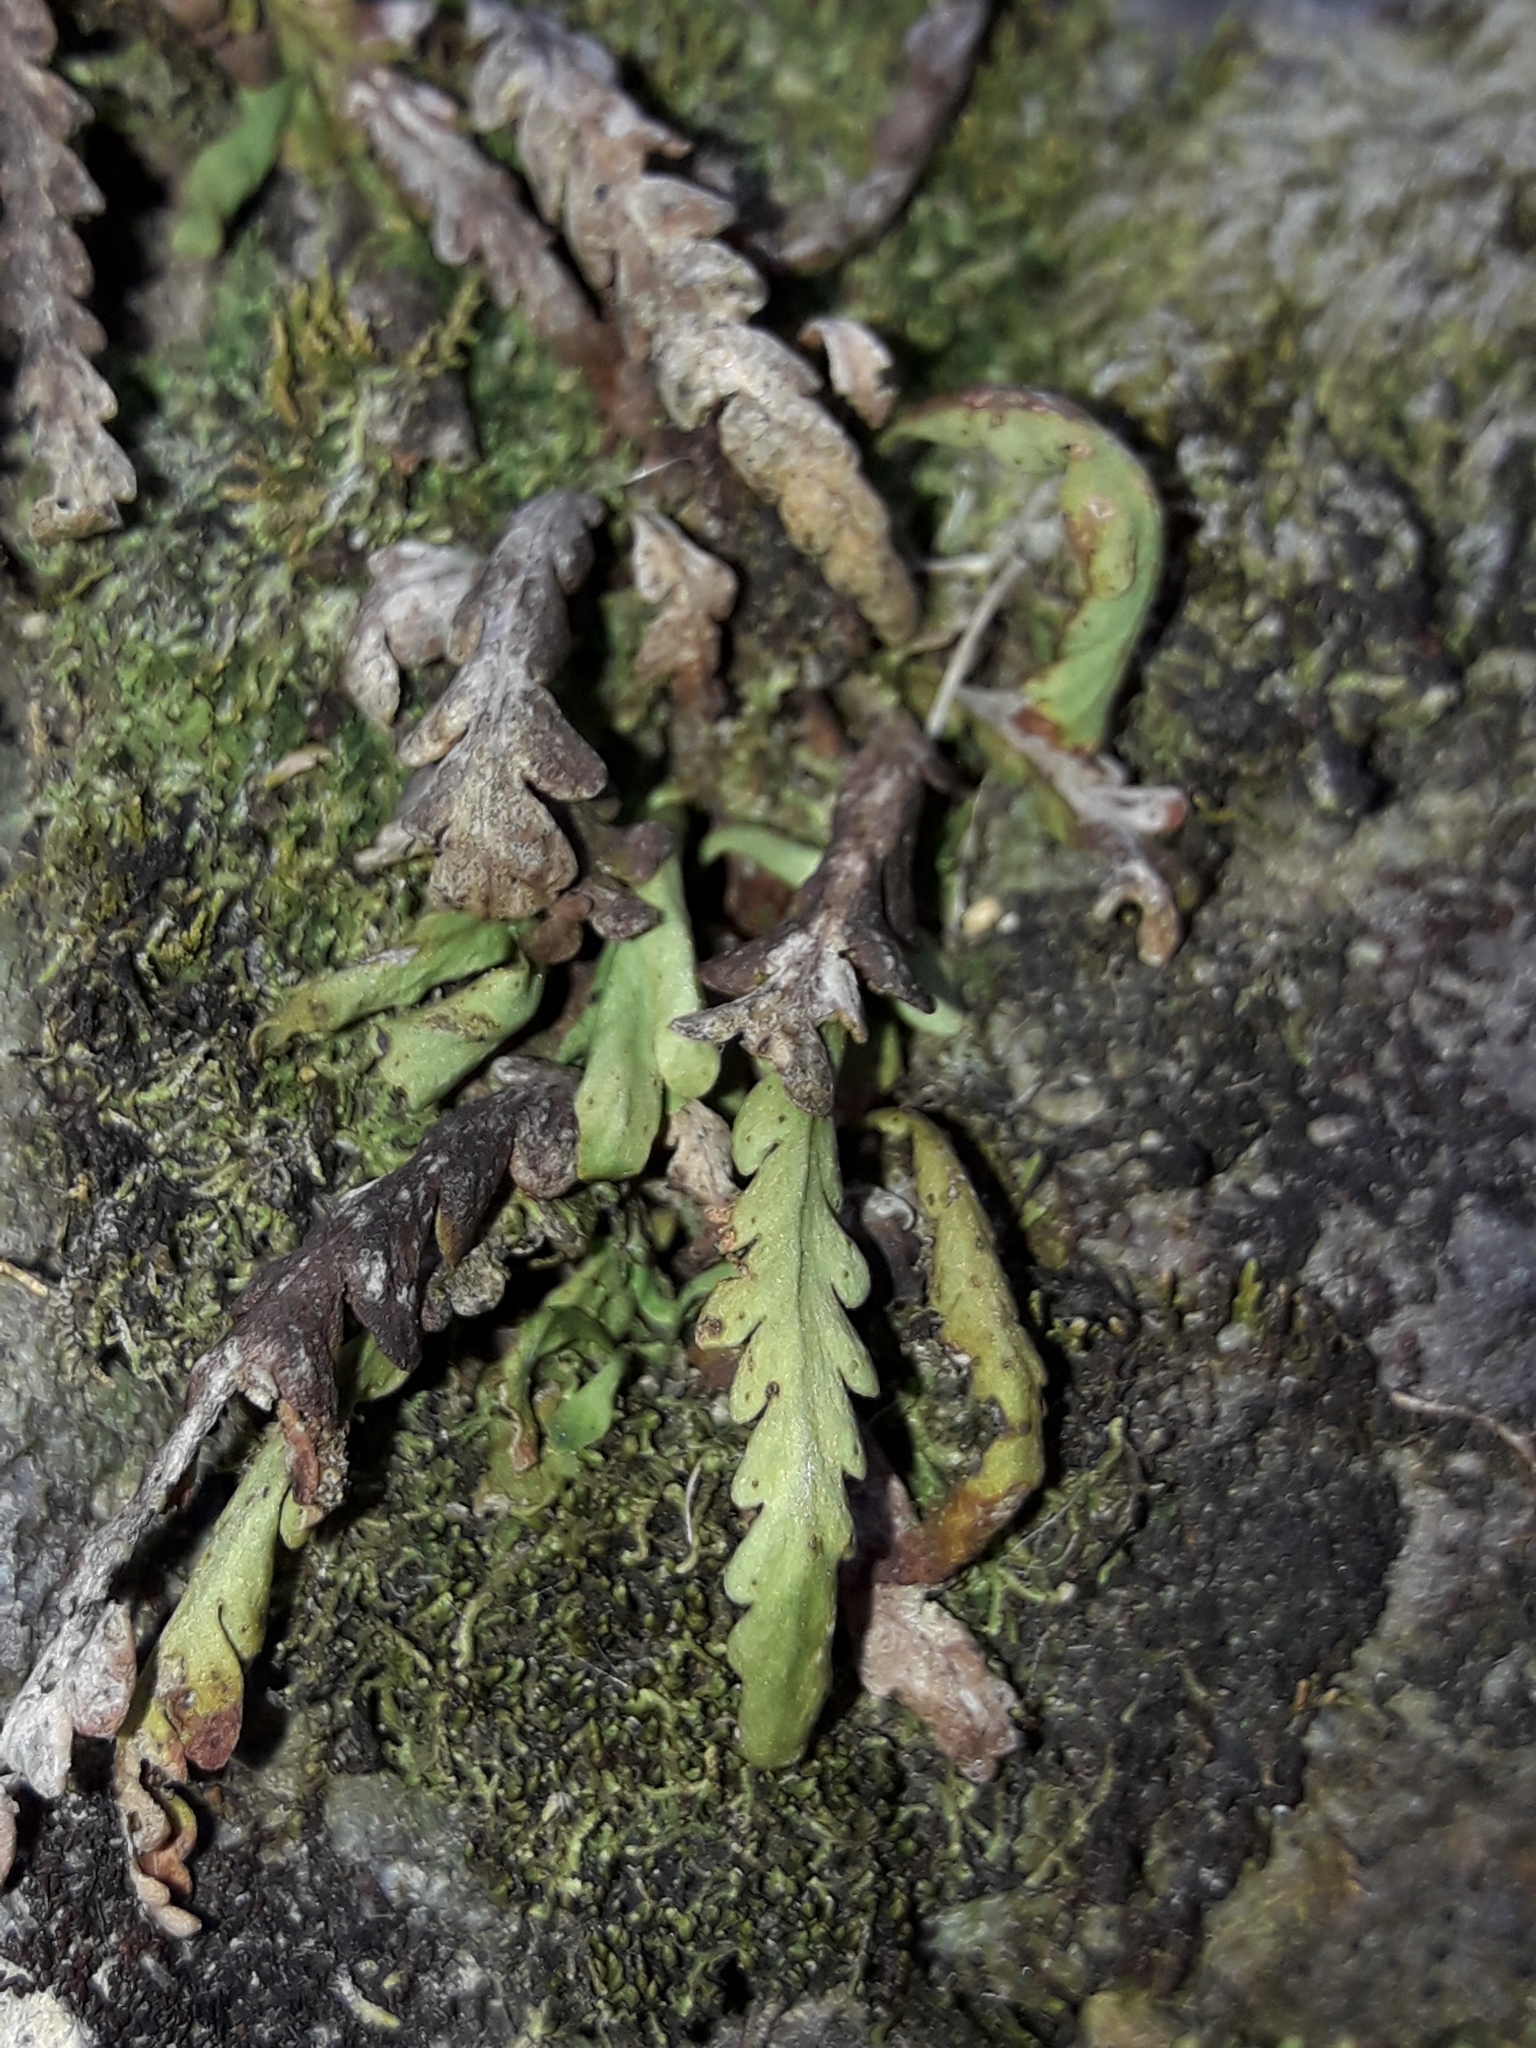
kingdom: Plantae
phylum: Tracheophyta
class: Polypodiopsida
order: Polypodiales
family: Polypodiaceae
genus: Notogrammitis
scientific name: Notogrammitis heterophylla
